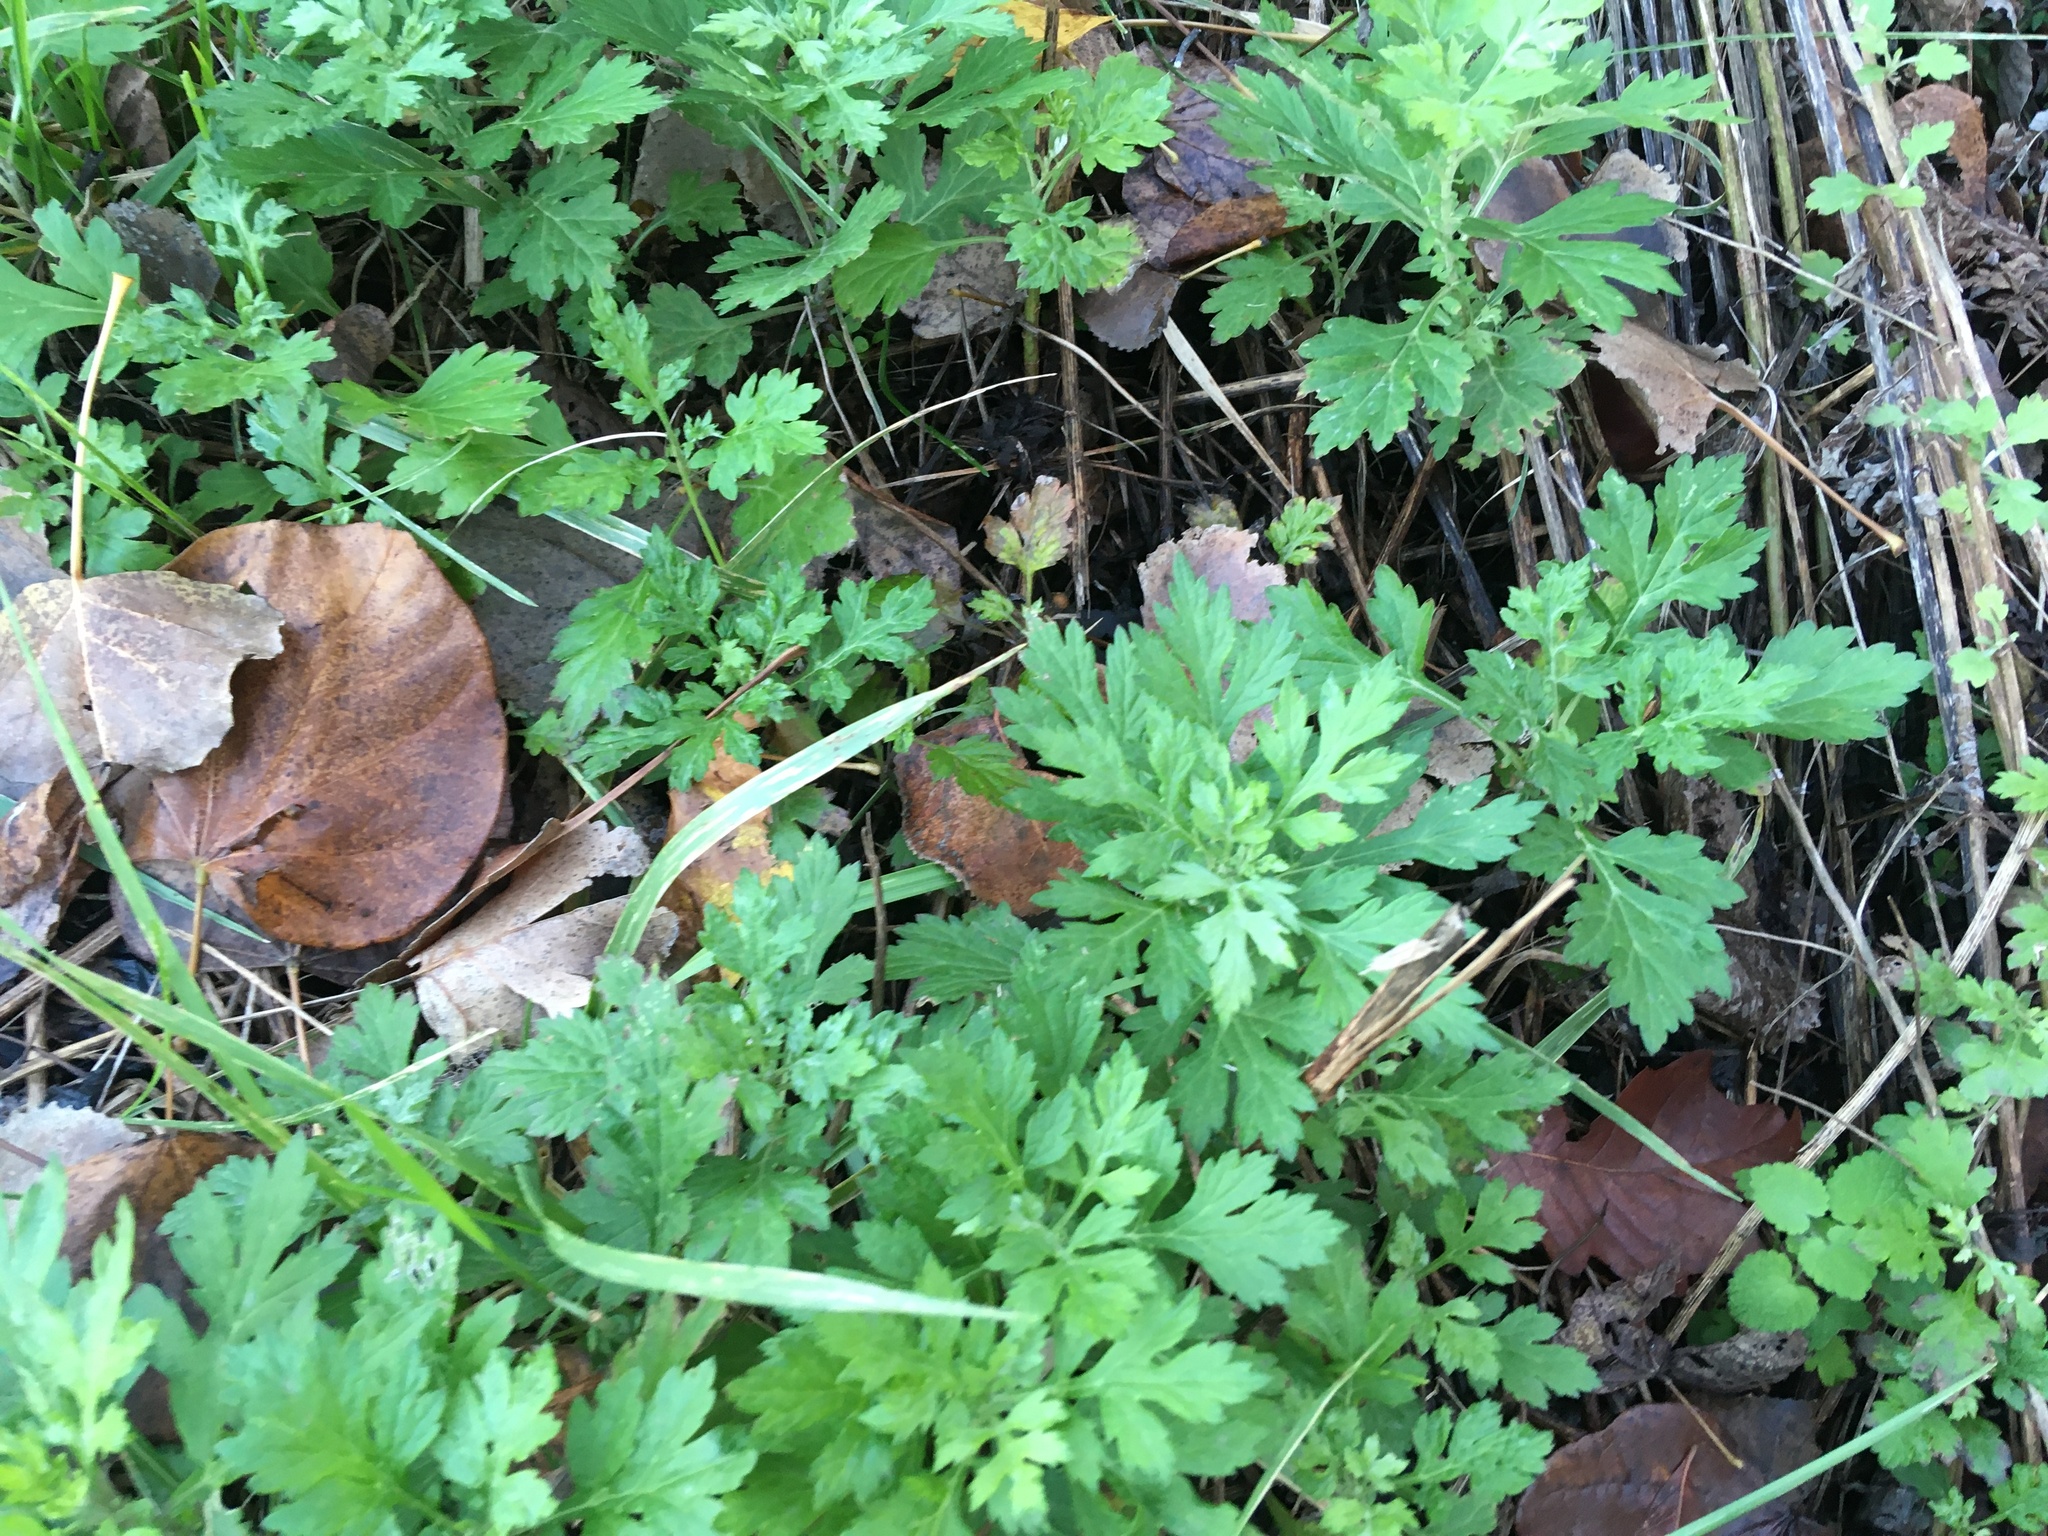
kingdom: Plantae
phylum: Tracheophyta
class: Magnoliopsida
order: Asterales
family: Asteraceae
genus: Artemisia
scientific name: Artemisia vulgaris
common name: Mugwort
